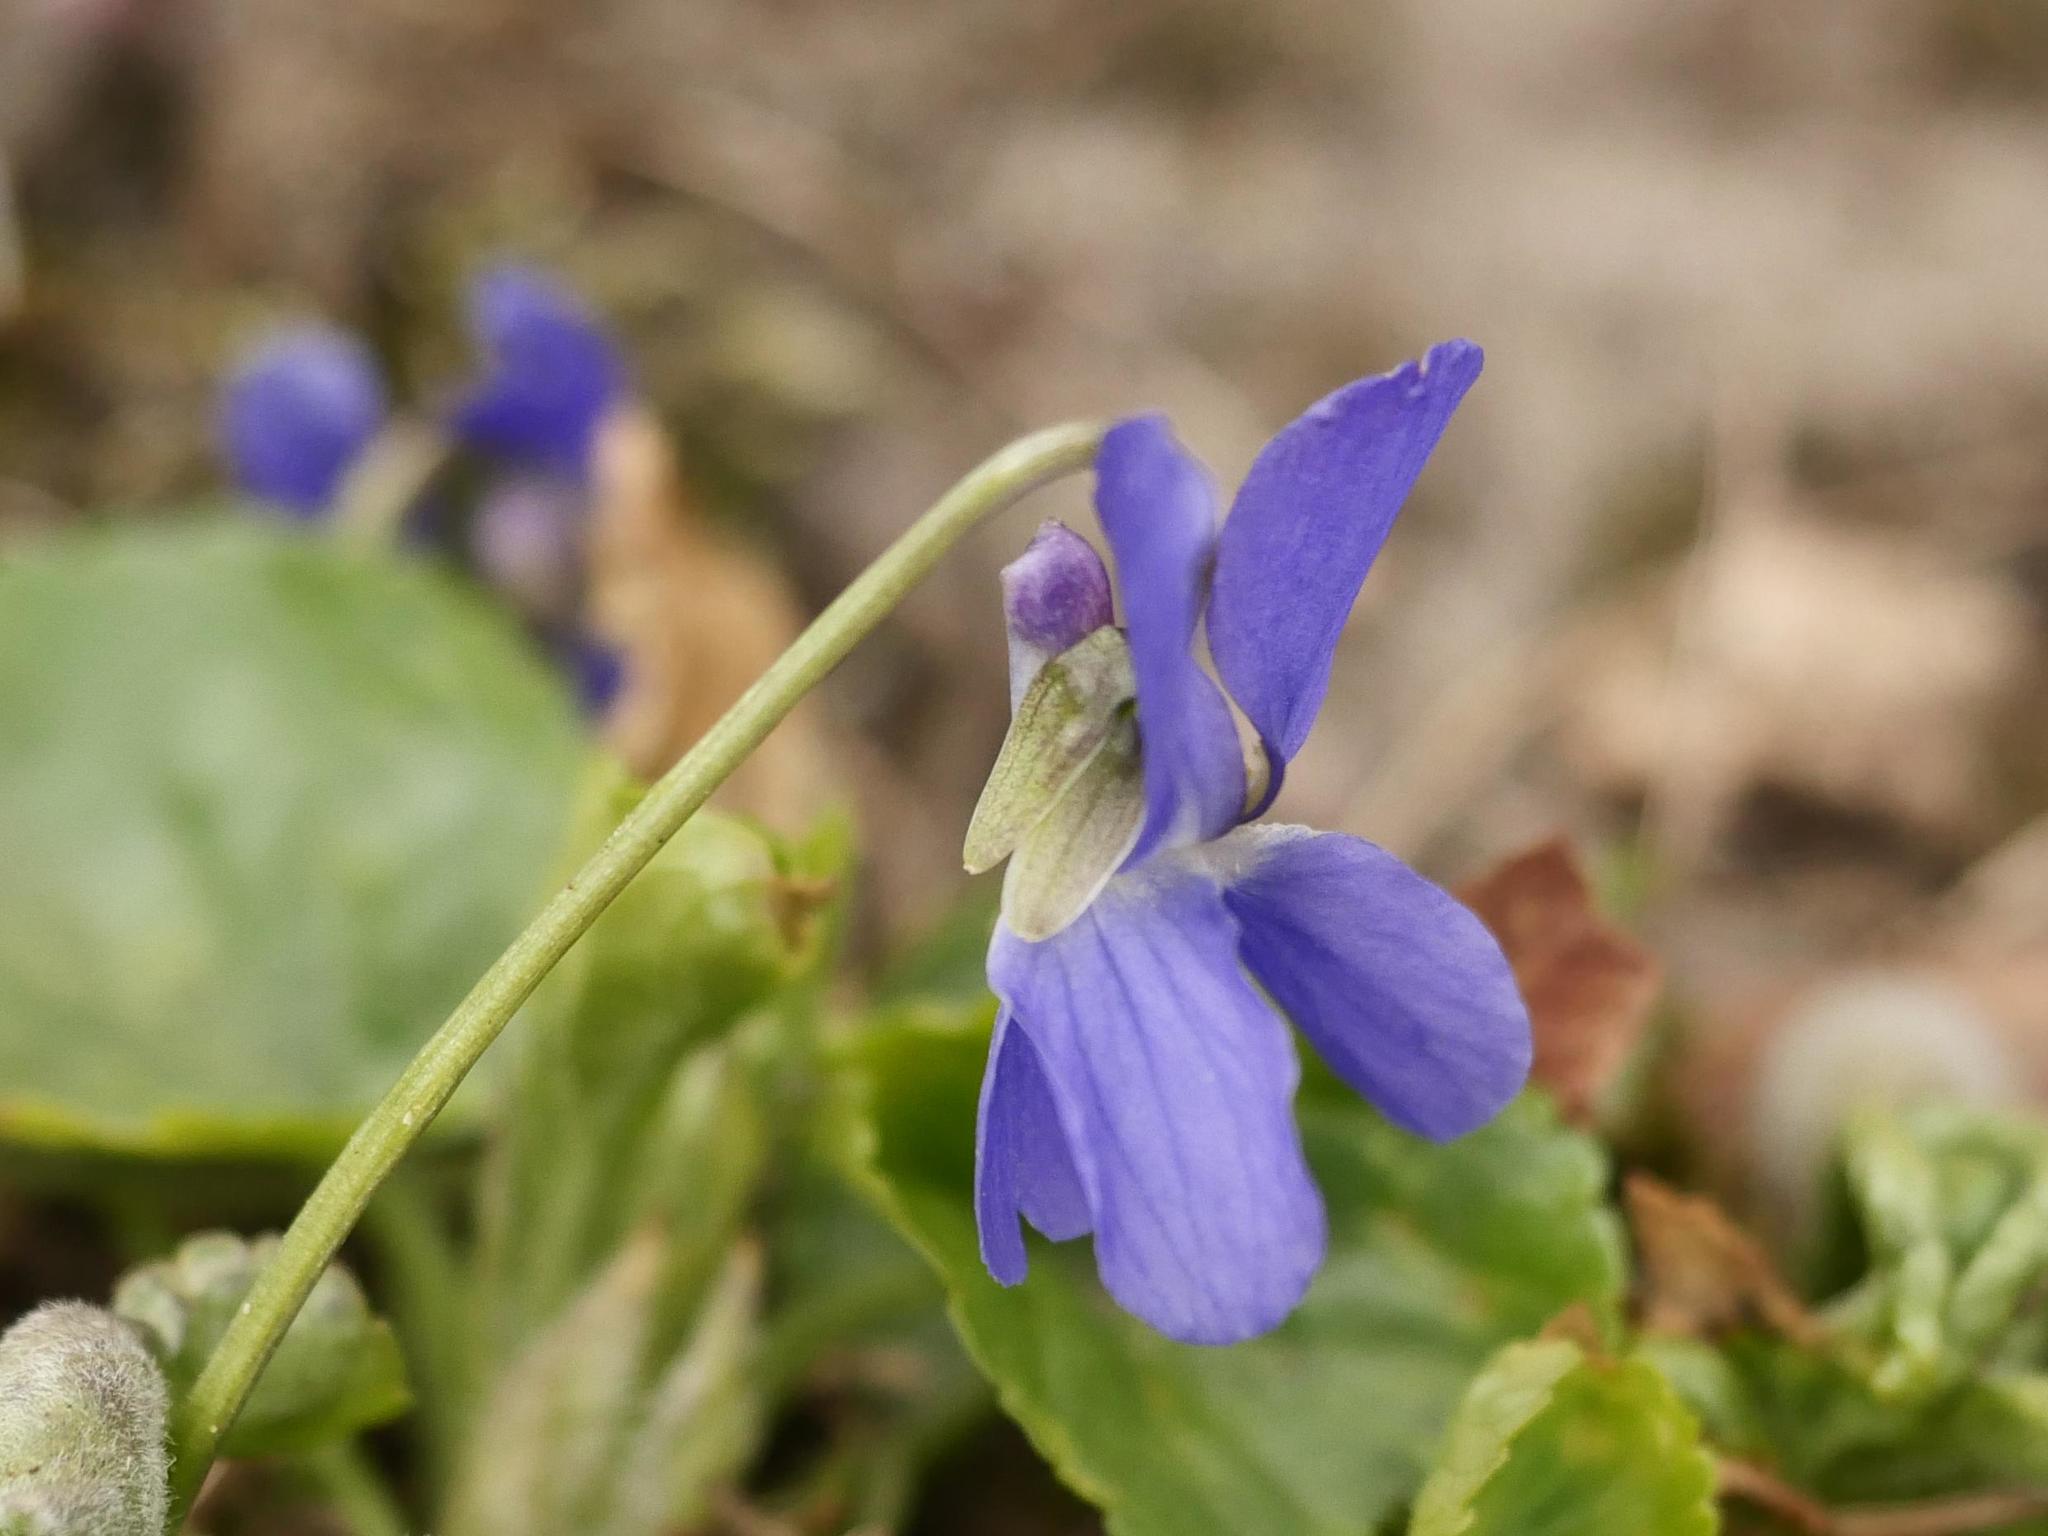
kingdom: Plantae
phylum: Tracheophyta
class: Magnoliopsida
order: Malpighiales
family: Violaceae
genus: Viola
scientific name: Viola odorata
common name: Sweet violet
